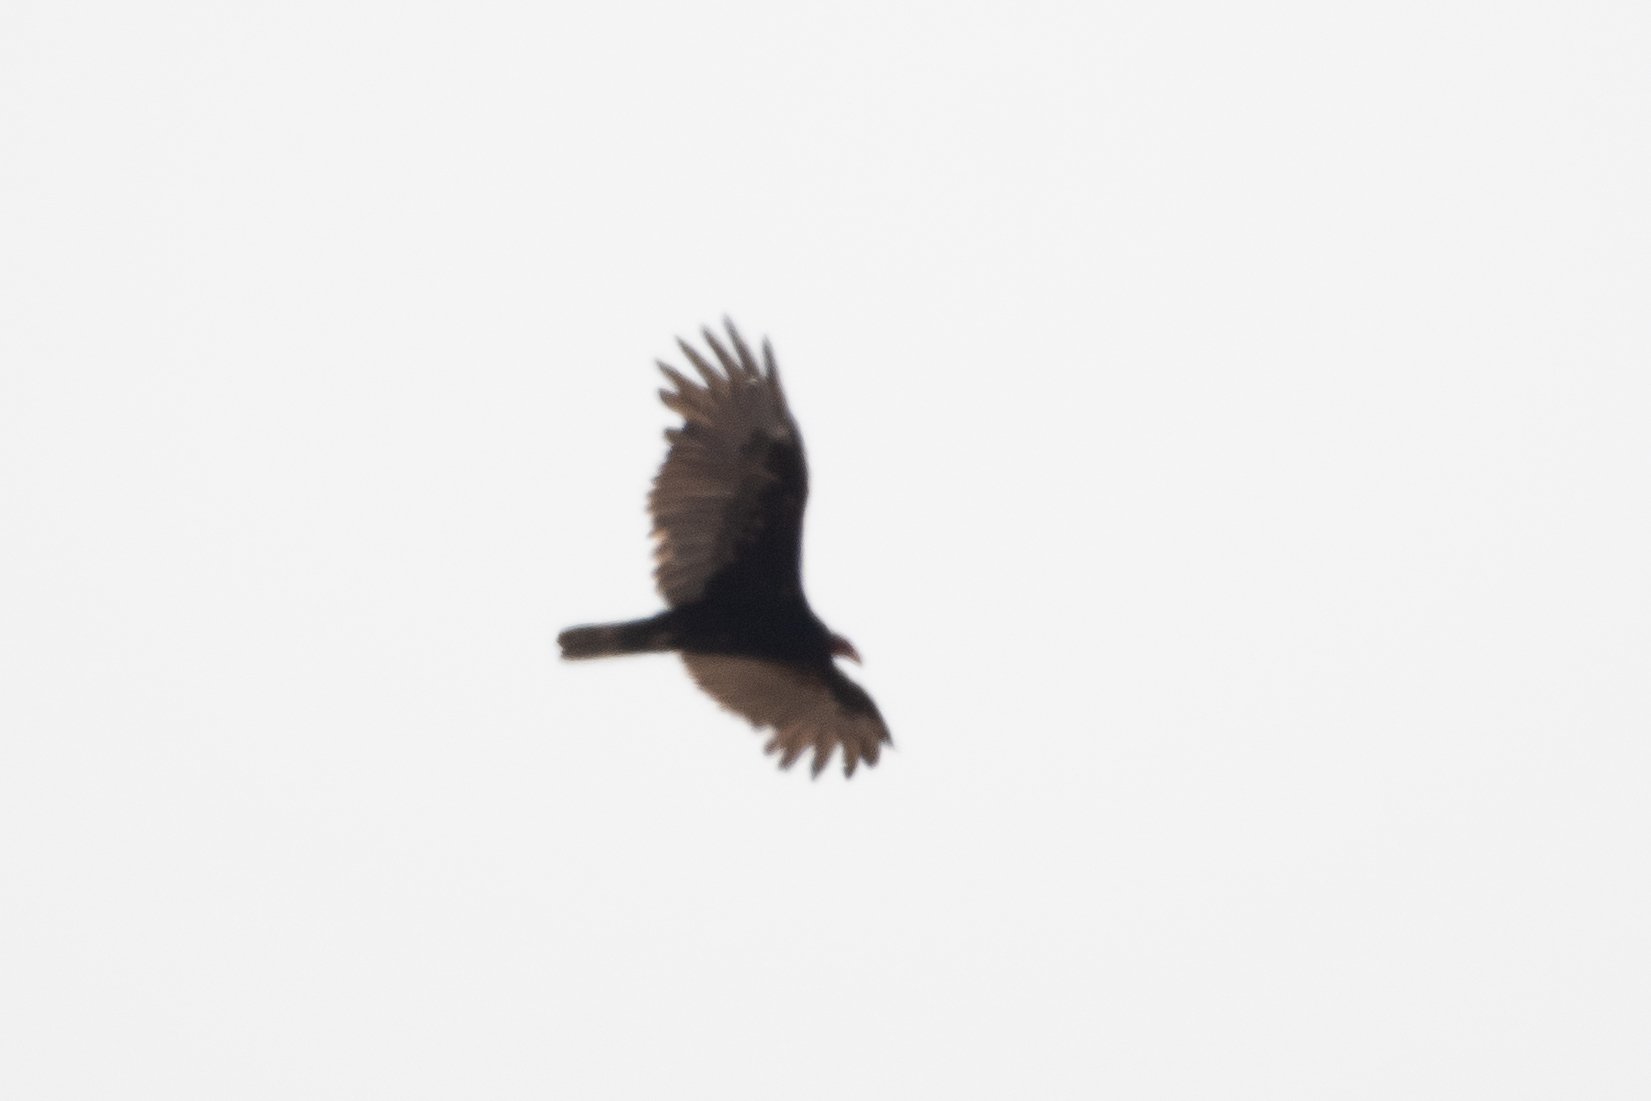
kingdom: Animalia
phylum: Chordata
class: Aves
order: Accipitriformes
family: Cathartidae
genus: Cathartes
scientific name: Cathartes aura
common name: Turkey vulture
